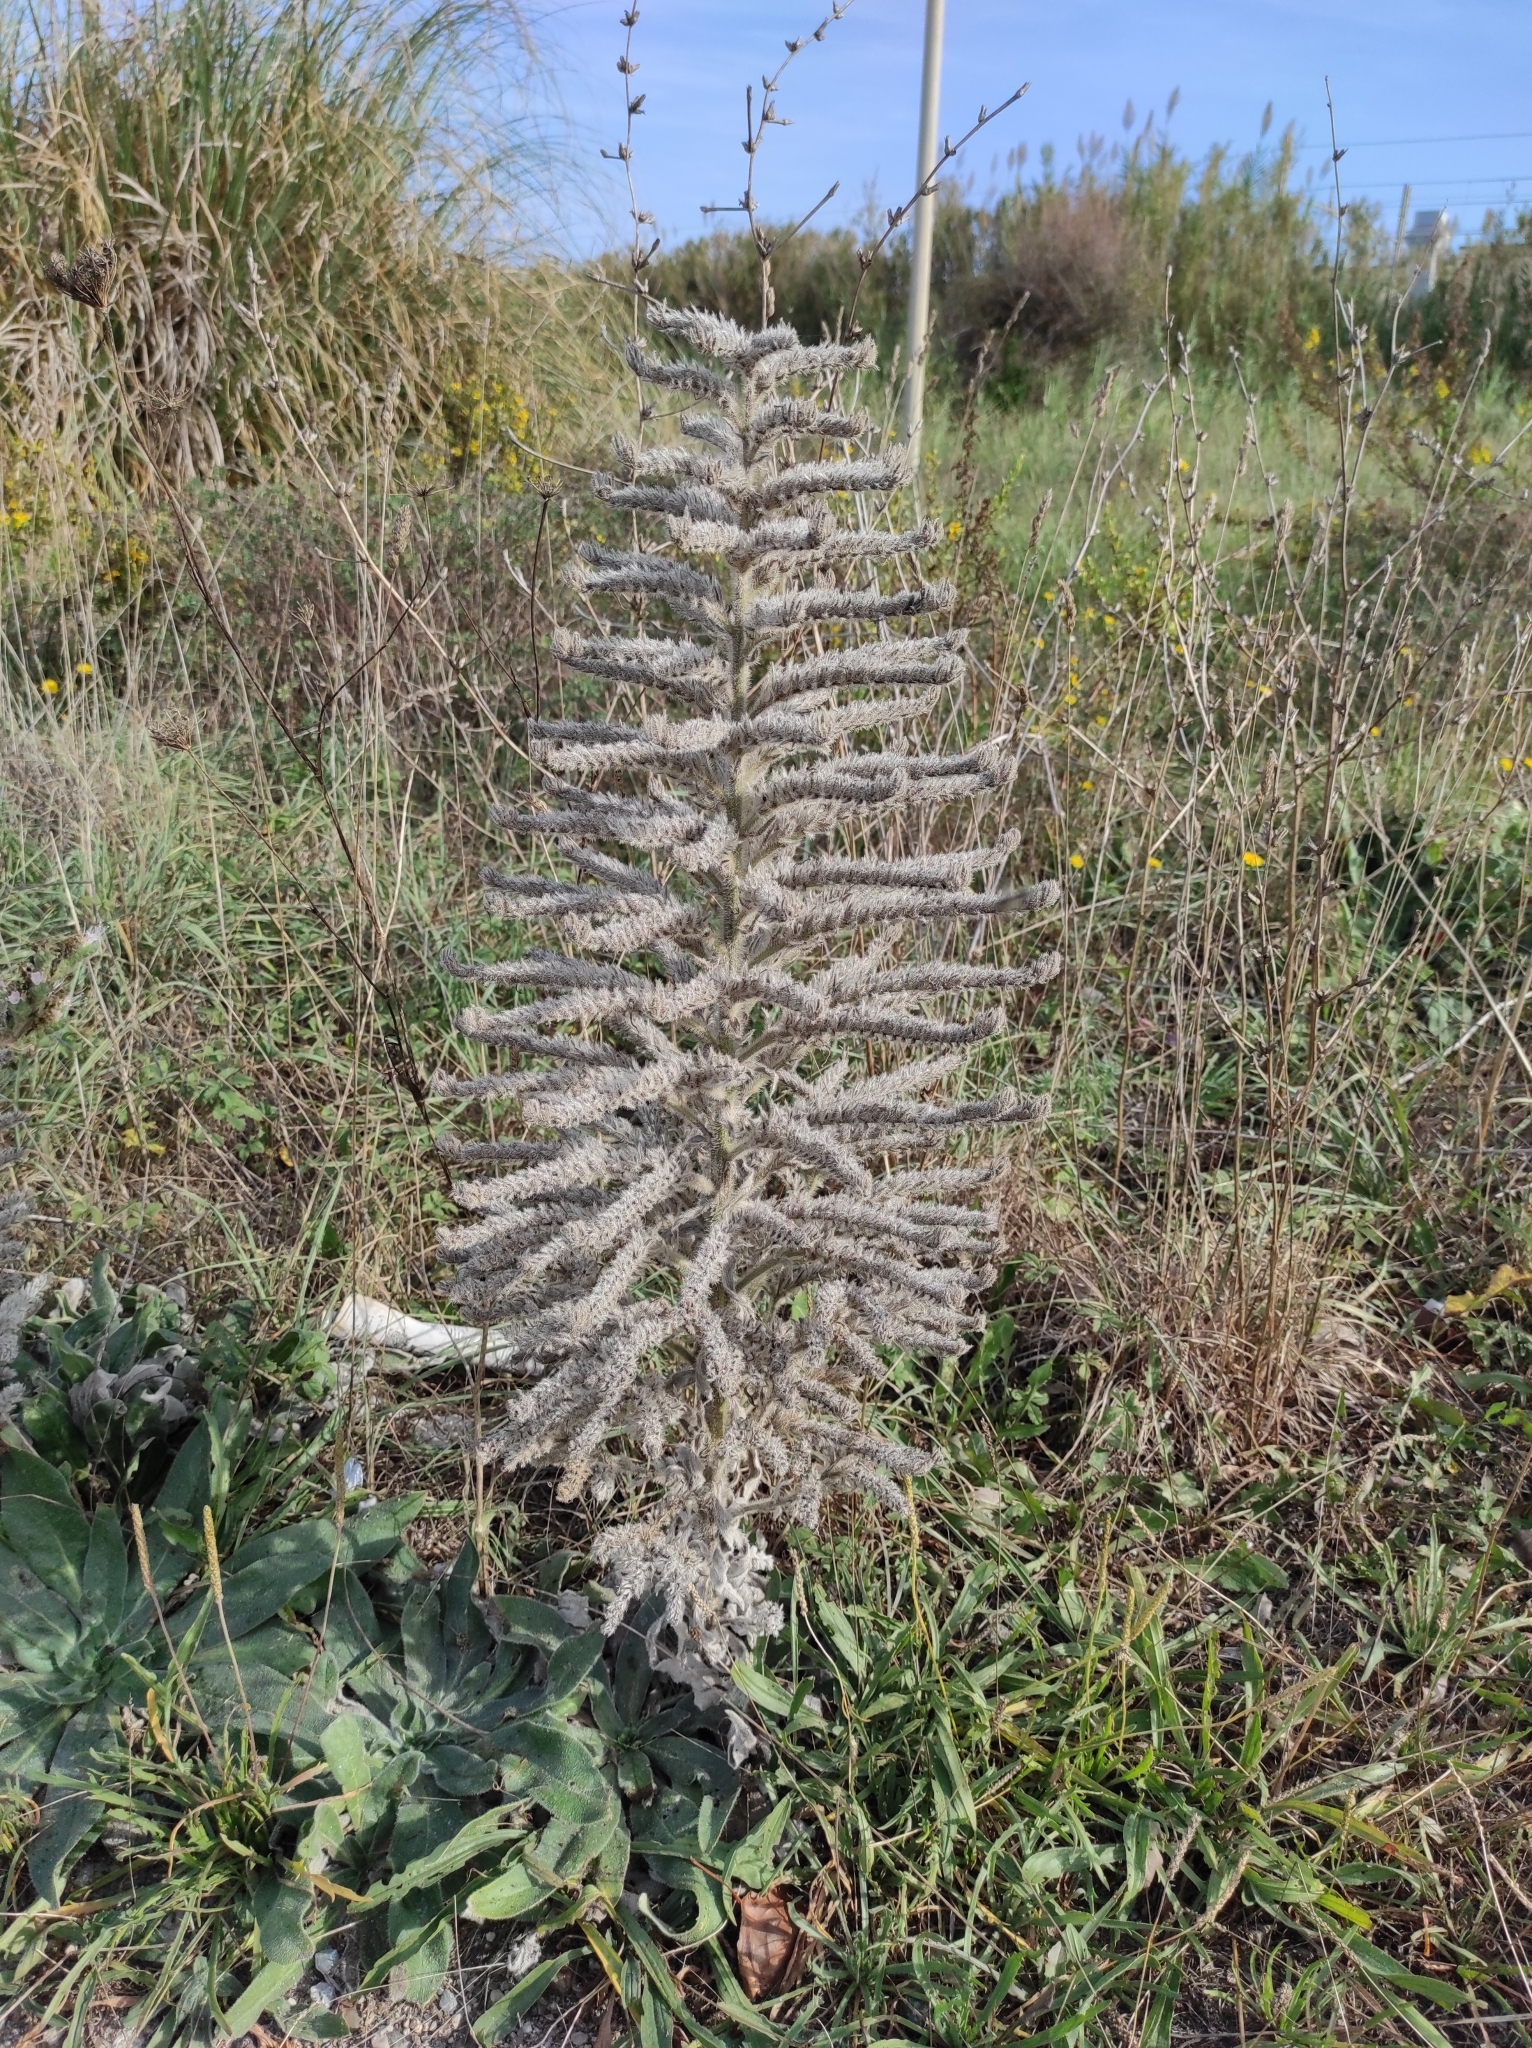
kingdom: Plantae
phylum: Tracheophyta
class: Magnoliopsida
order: Boraginales
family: Boraginaceae
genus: Echium
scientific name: Echium italicum
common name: Italian viper's bugloss
